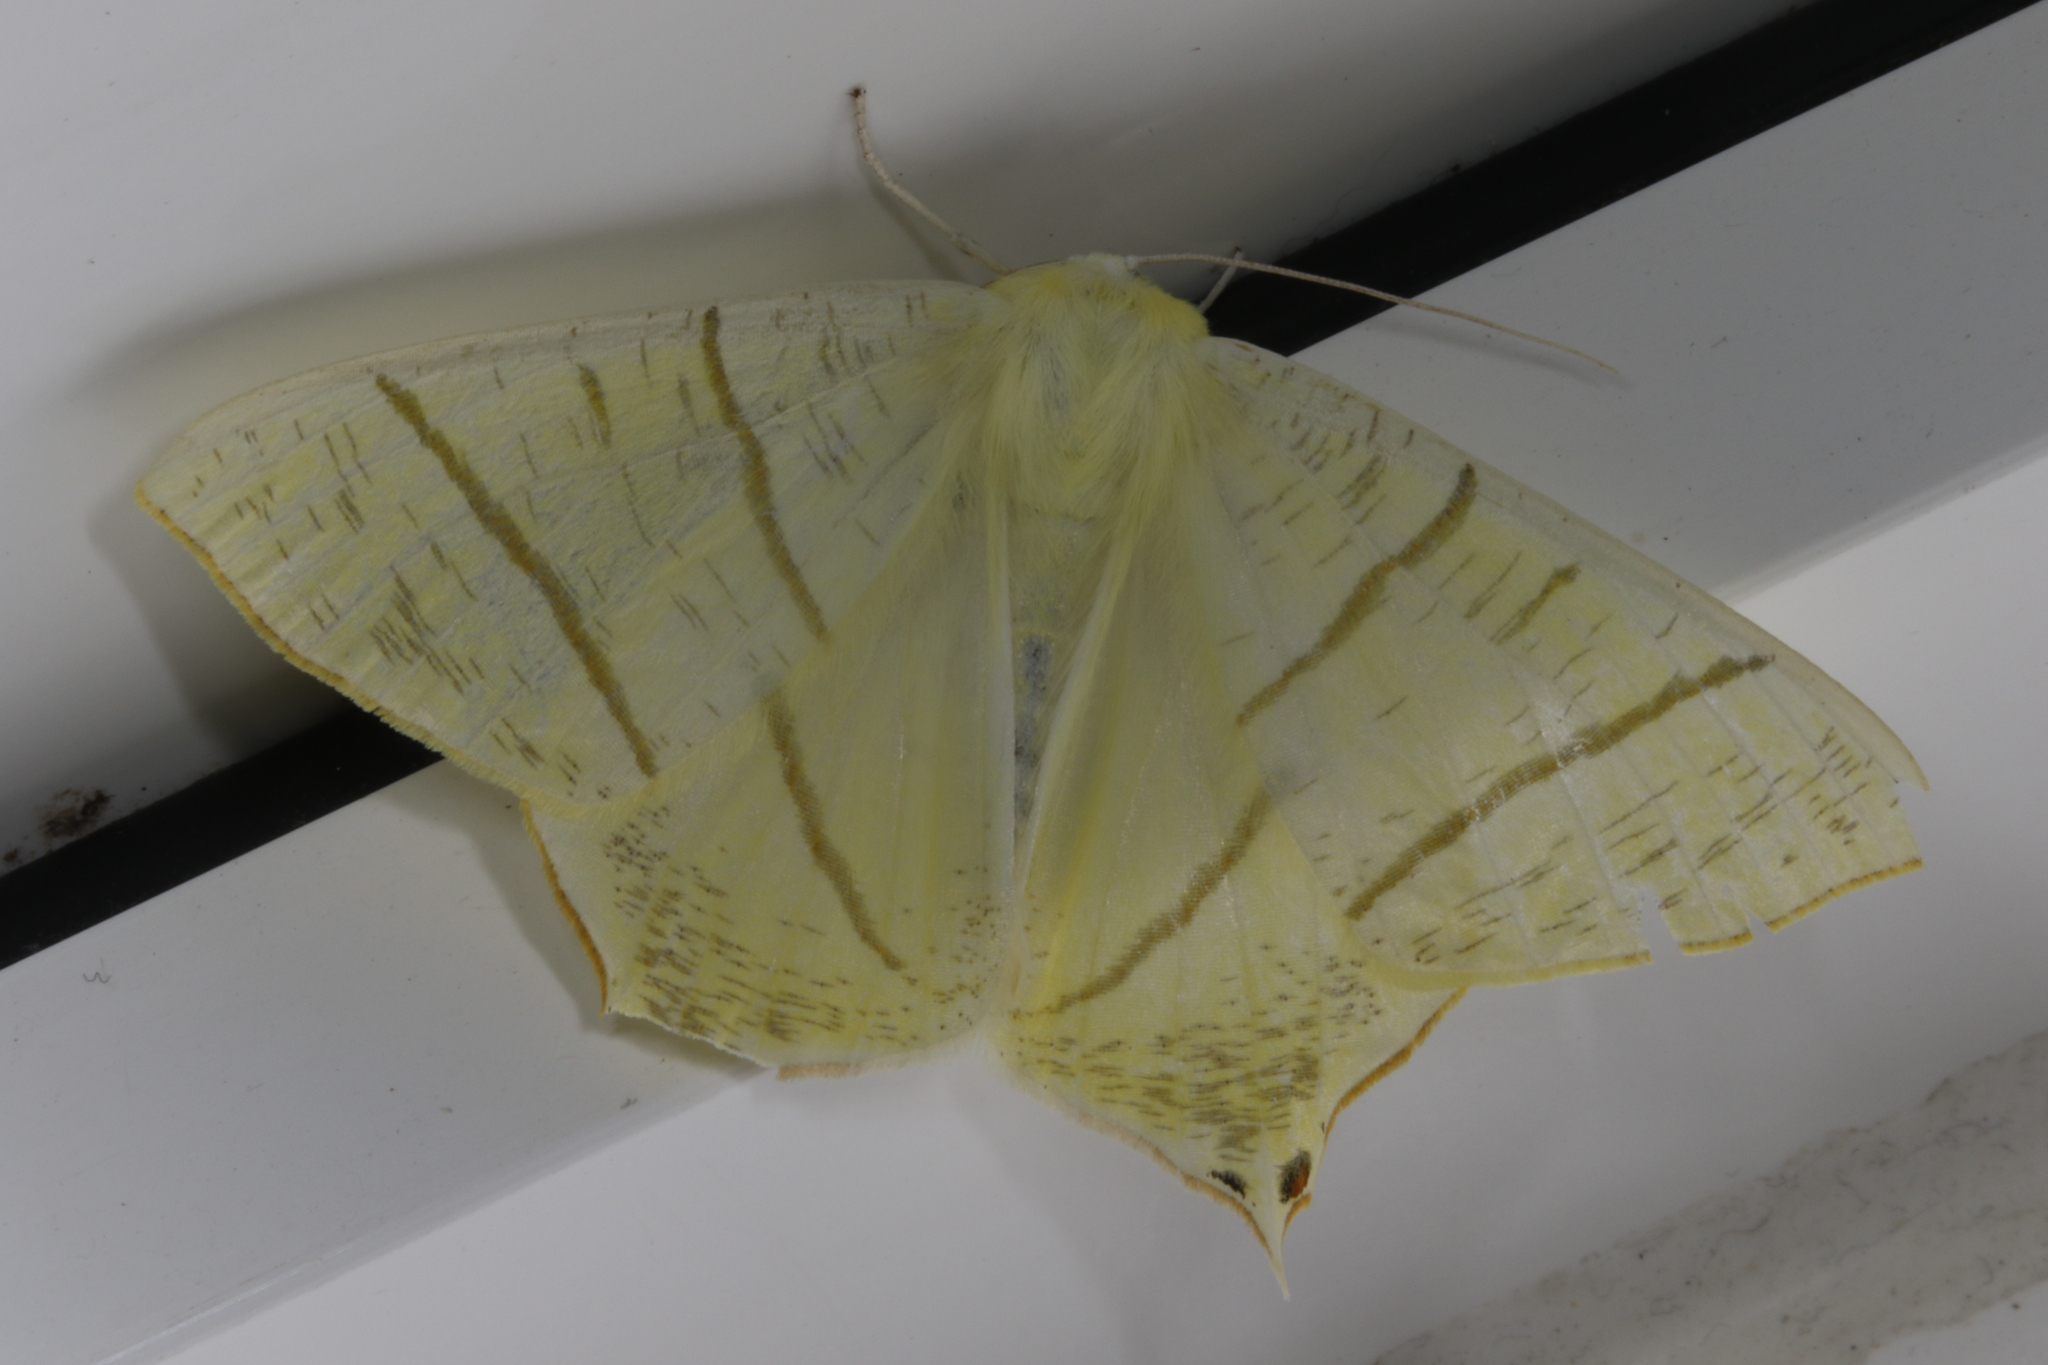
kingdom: Animalia
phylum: Arthropoda
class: Insecta
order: Lepidoptera
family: Geometridae
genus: Ourapteryx
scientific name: Ourapteryx sambucaria
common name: Swallow-tailed moth
